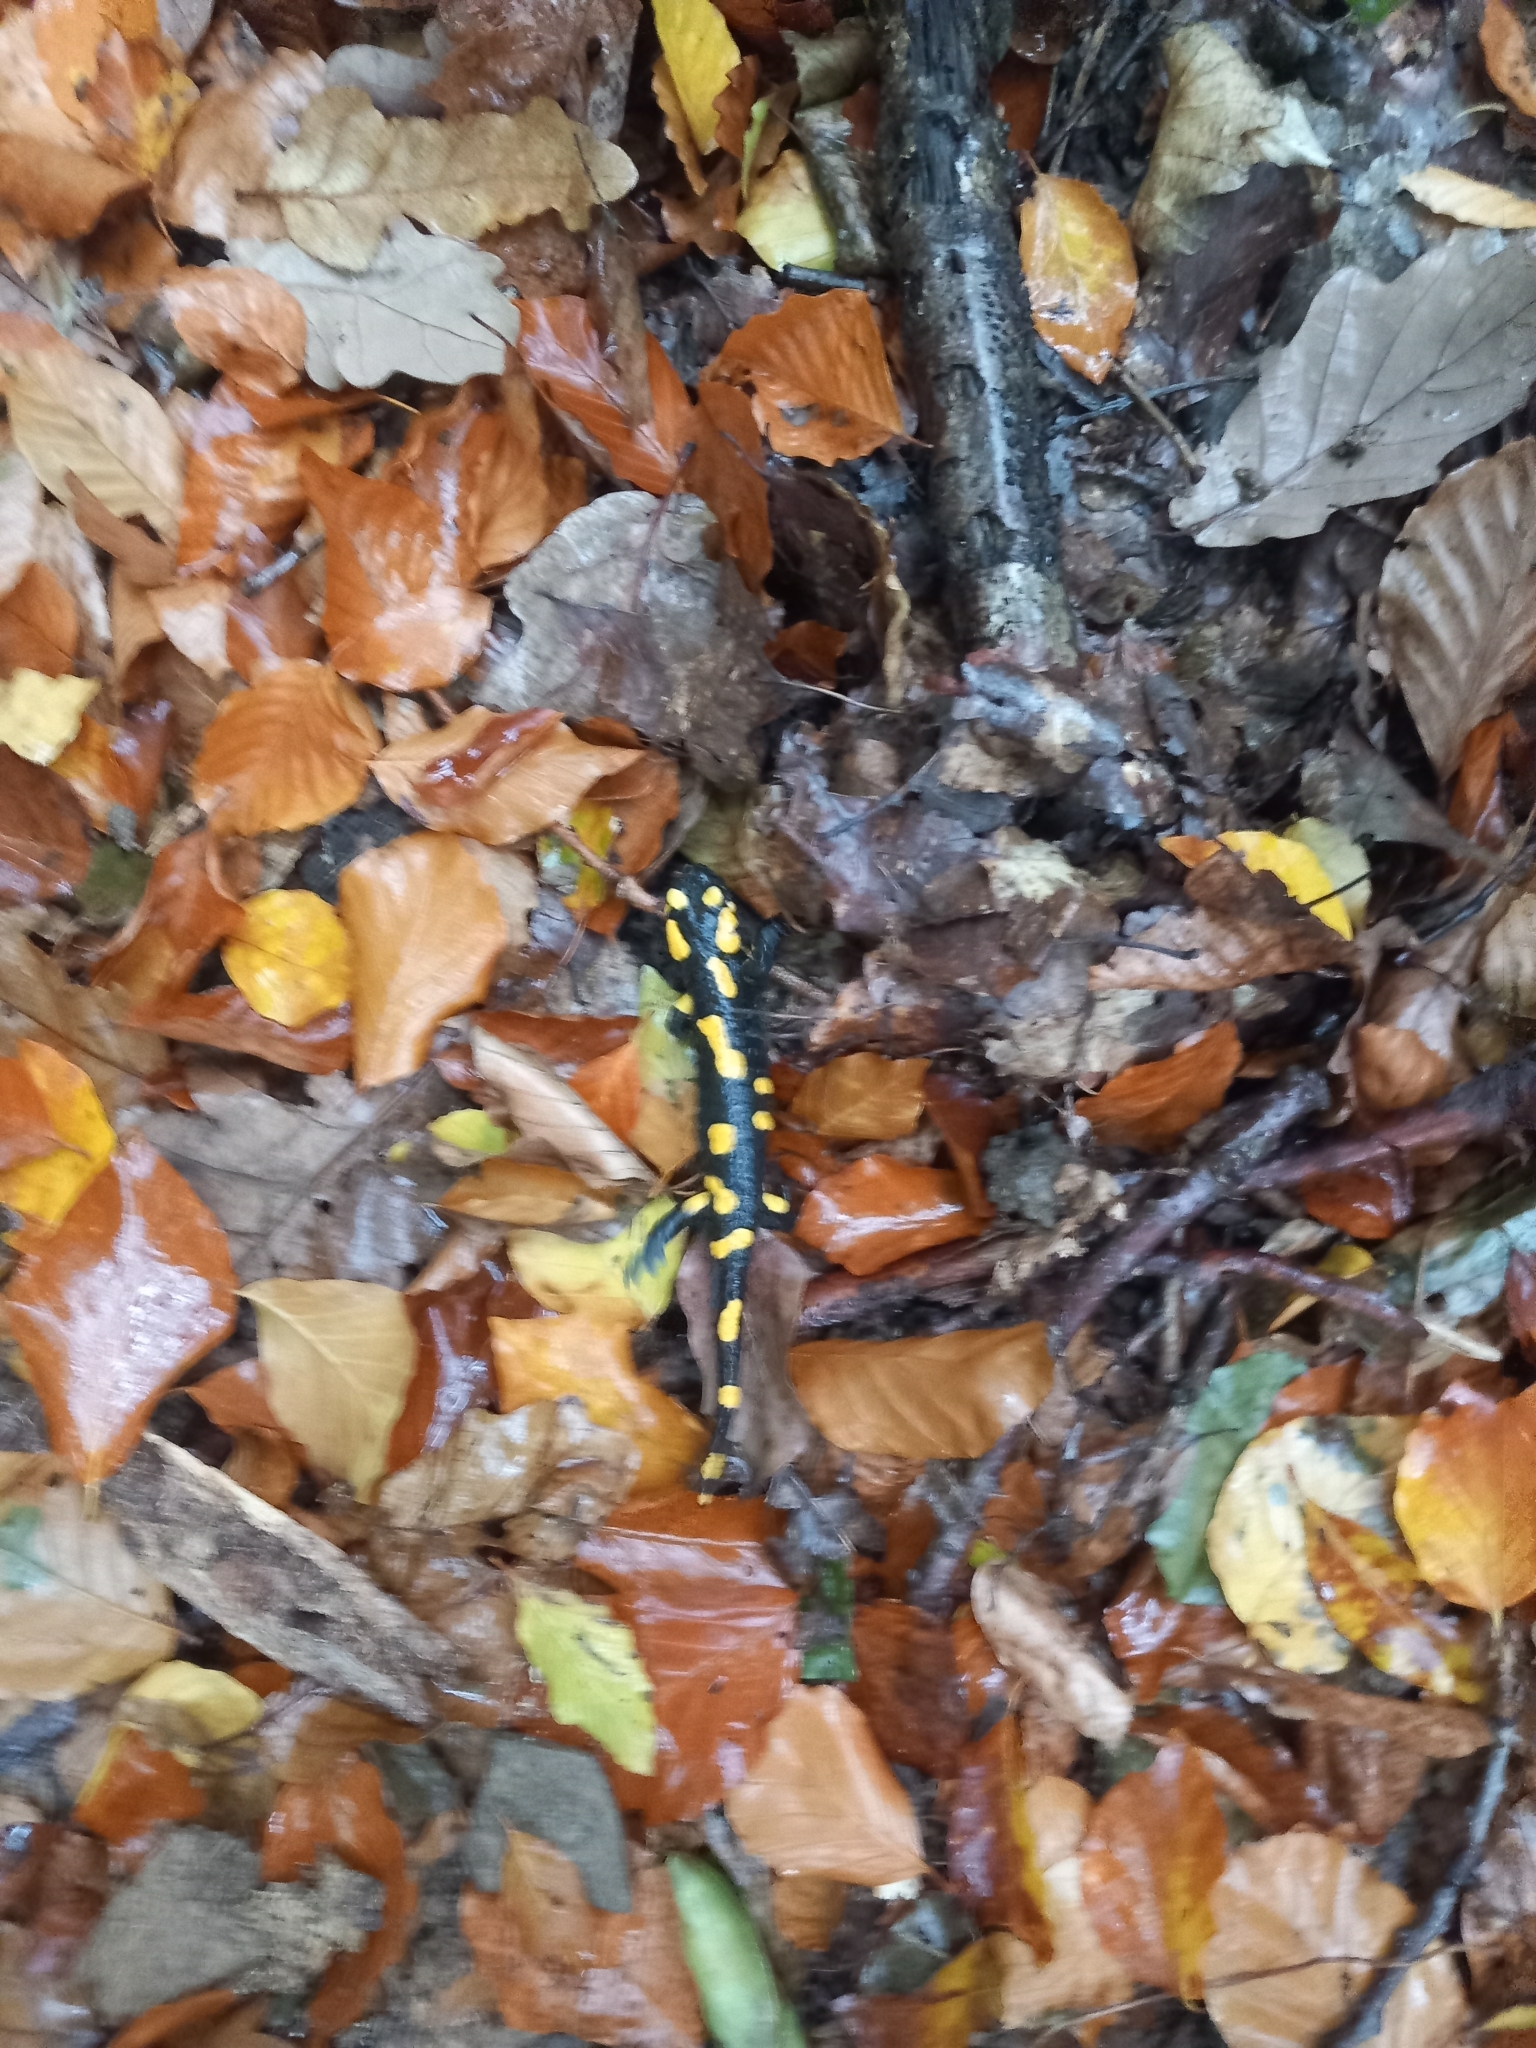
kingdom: Animalia
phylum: Chordata
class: Amphibia
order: Caudata
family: Salamandridae
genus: Salamandra
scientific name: Salamandra salamandra
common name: Fire salamander
